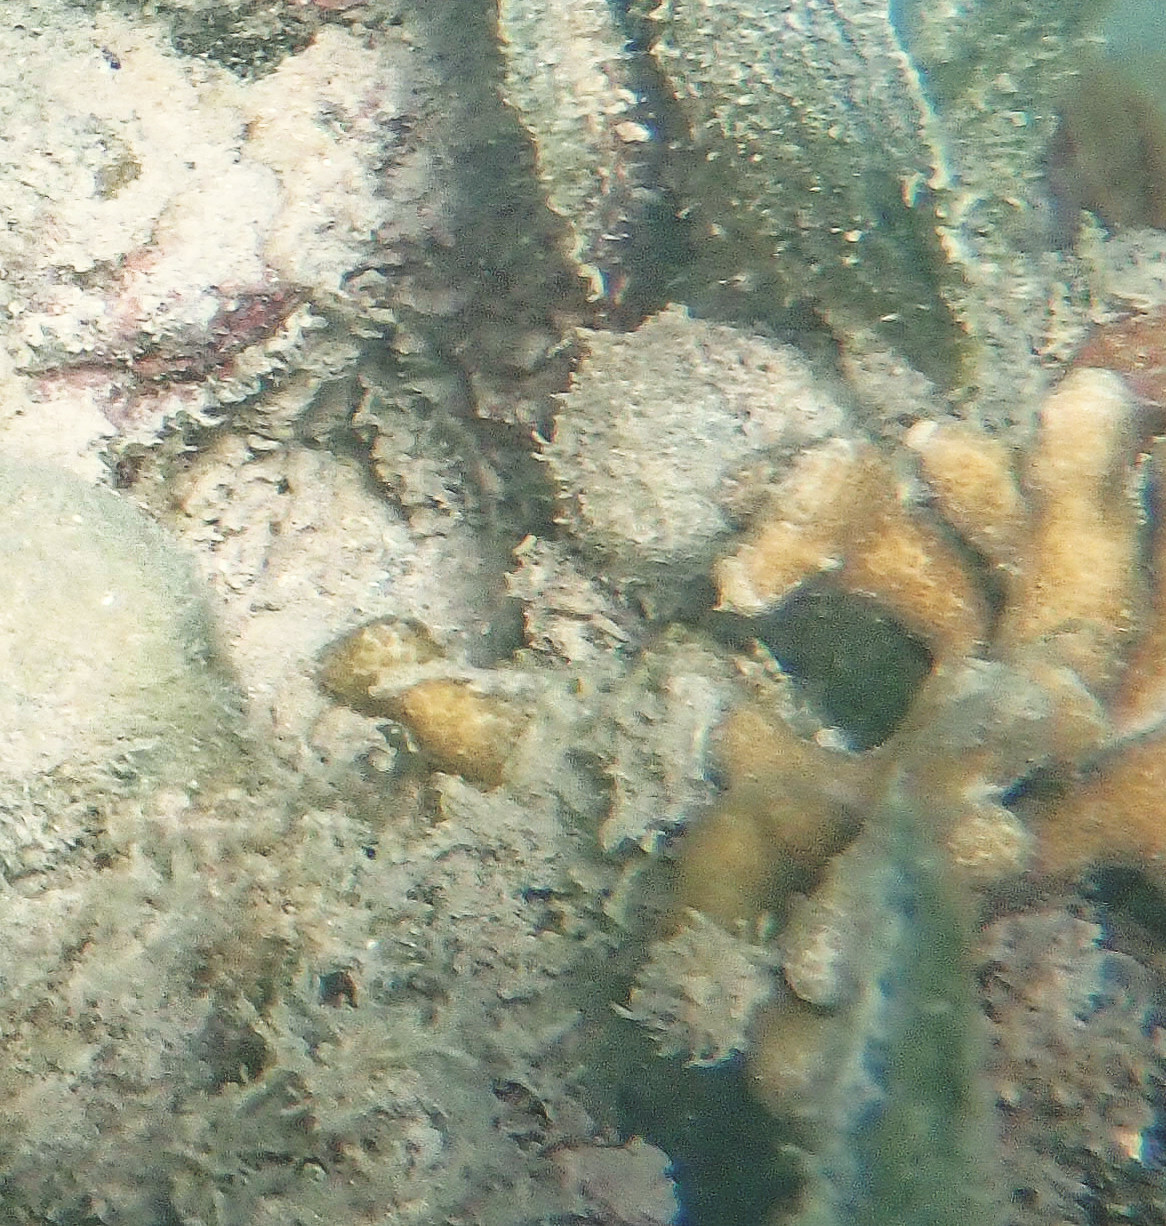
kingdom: Animalia
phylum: Cnidaria
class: Anthozoa
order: Scleractinia
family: Poritidae
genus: Porites
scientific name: Porites porites
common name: Finger coral
